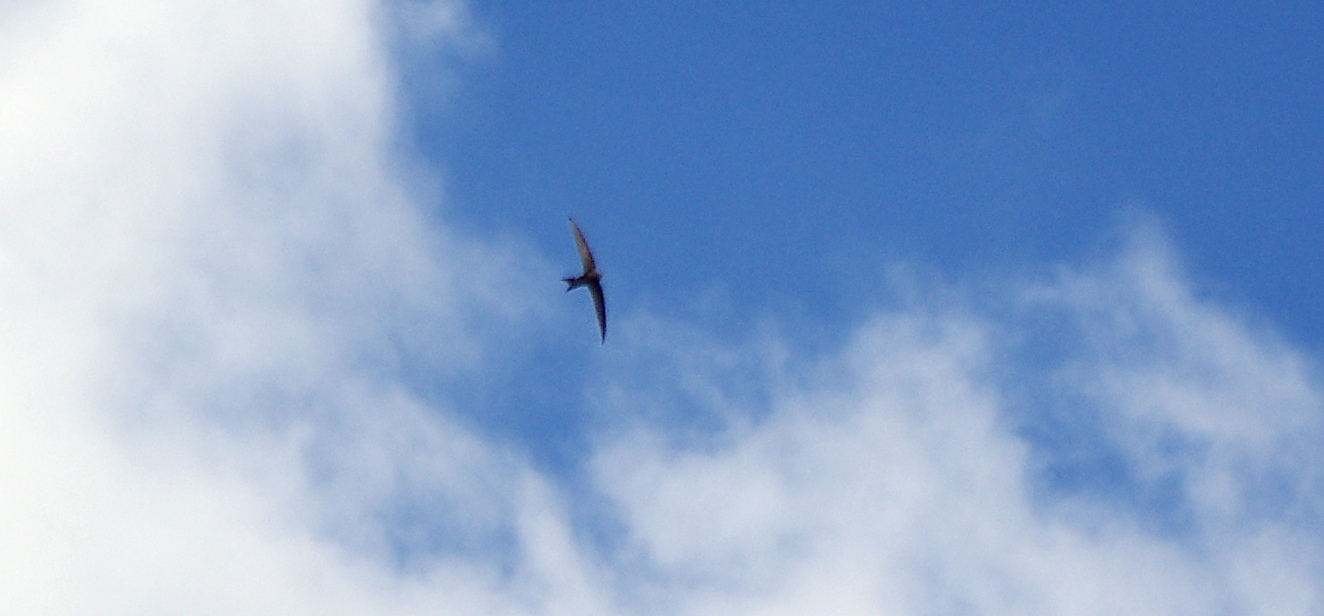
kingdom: Animalia
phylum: Chordata
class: Aves
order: Apodiformes
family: Apodidae
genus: Apus
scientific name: Apus apus
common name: Common swift
